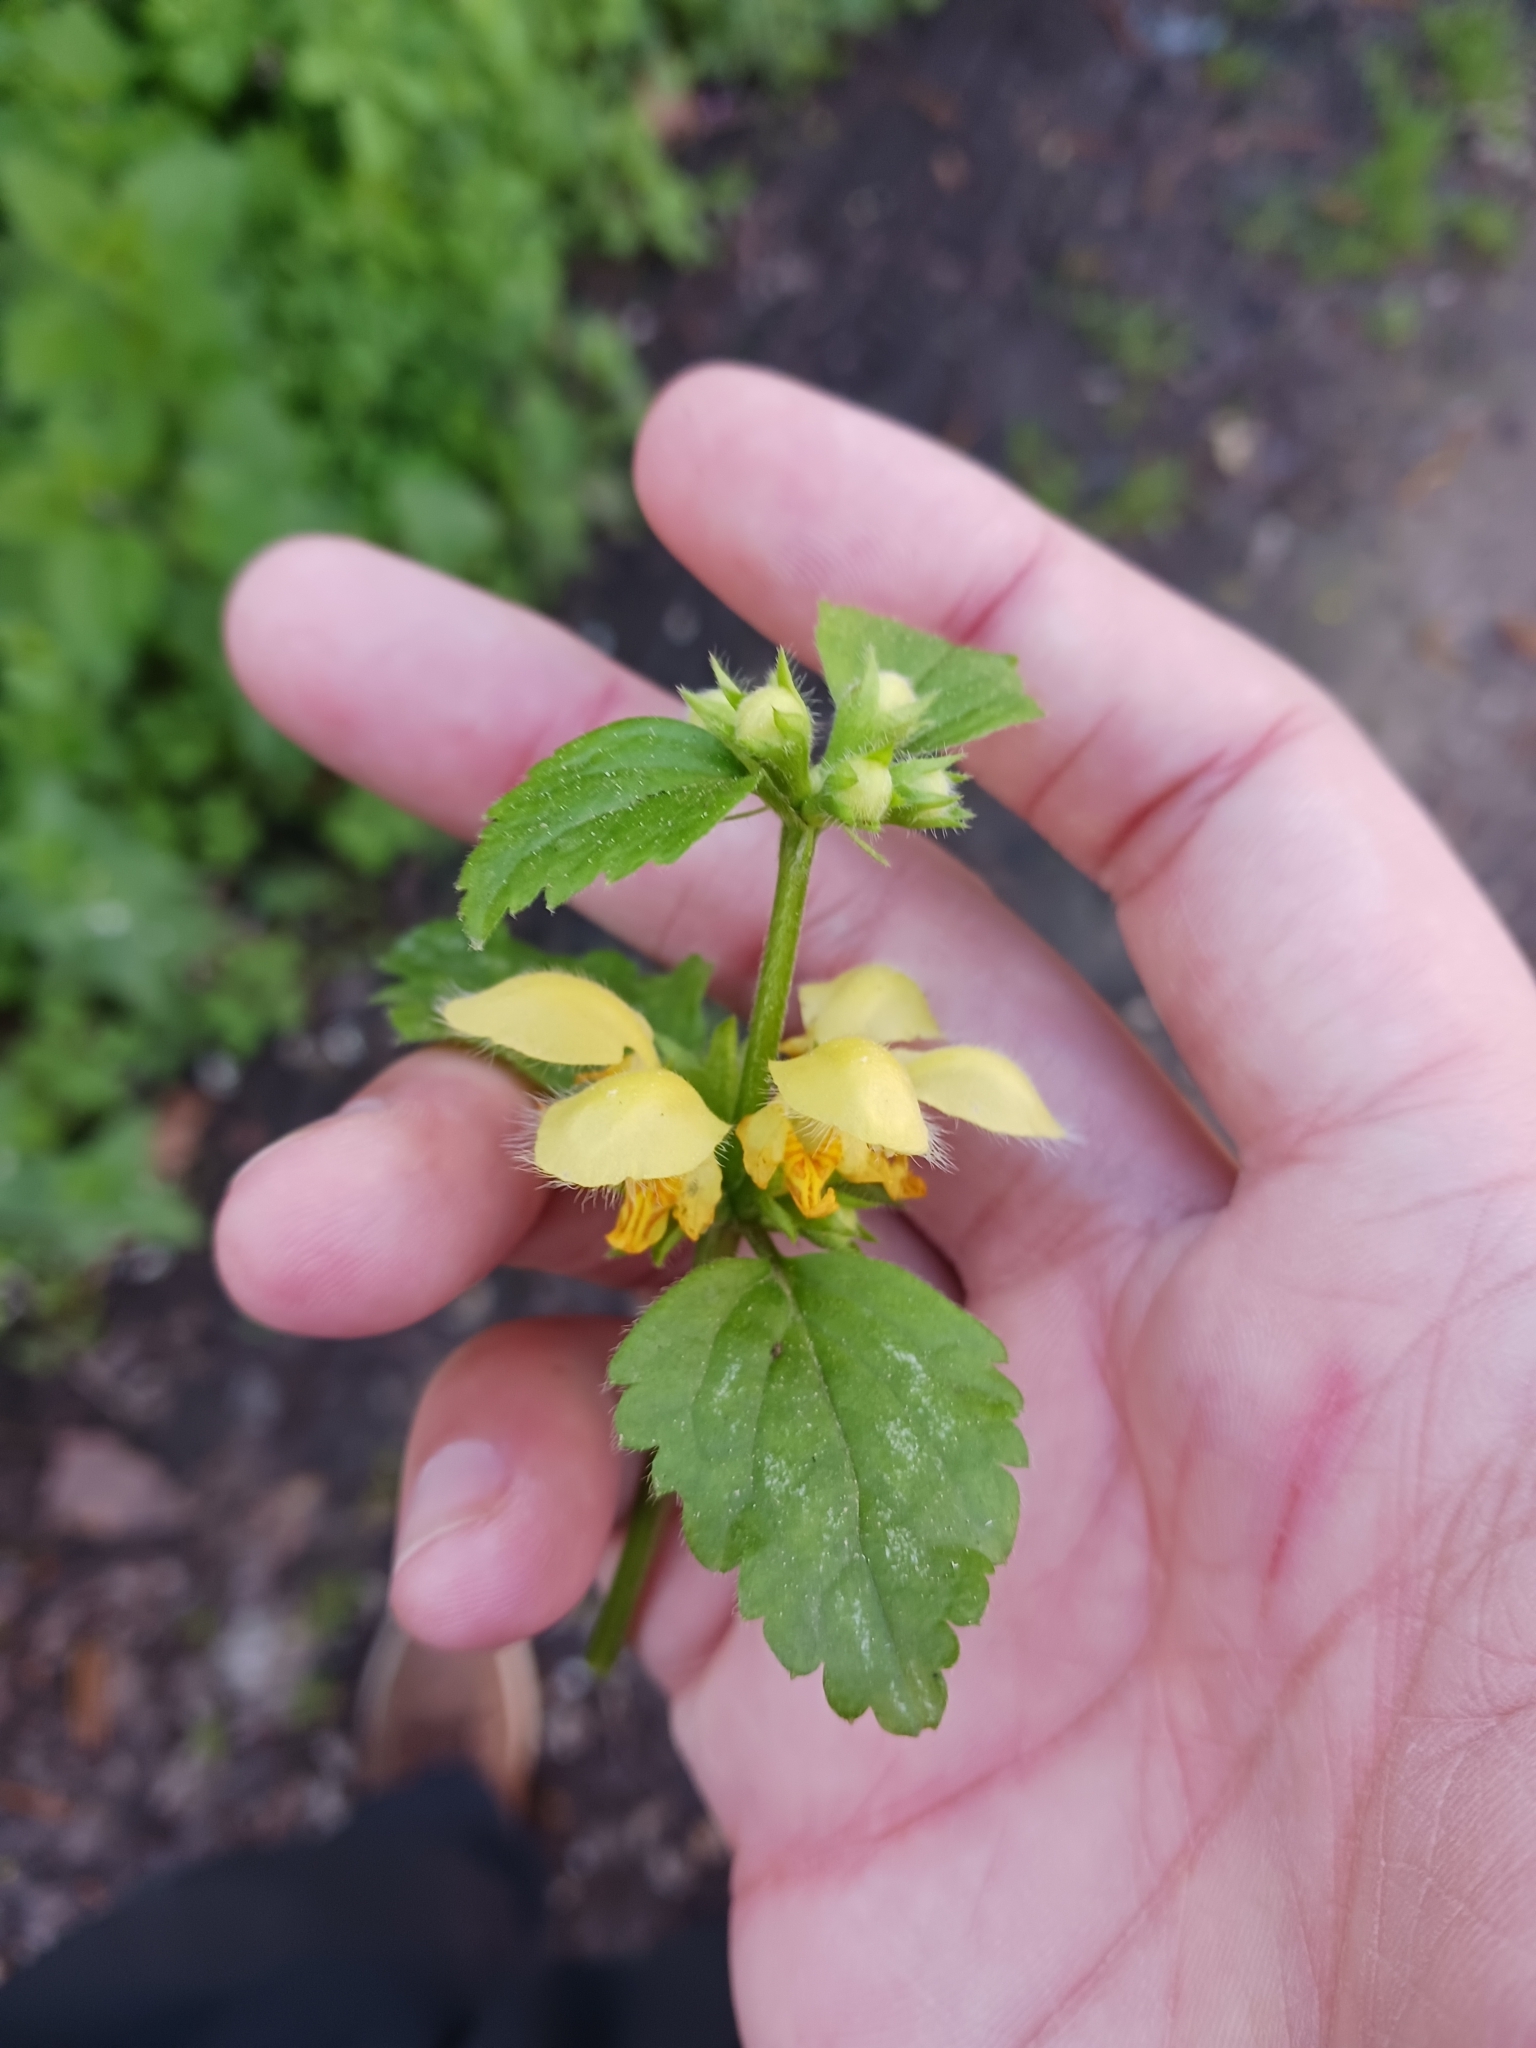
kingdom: Plantae
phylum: Tracheophyta
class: Magnoliopsida
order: Lamiales
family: Lamiaceae
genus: Lamium
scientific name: Lamium galeobdolon
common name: Yellow archangel
